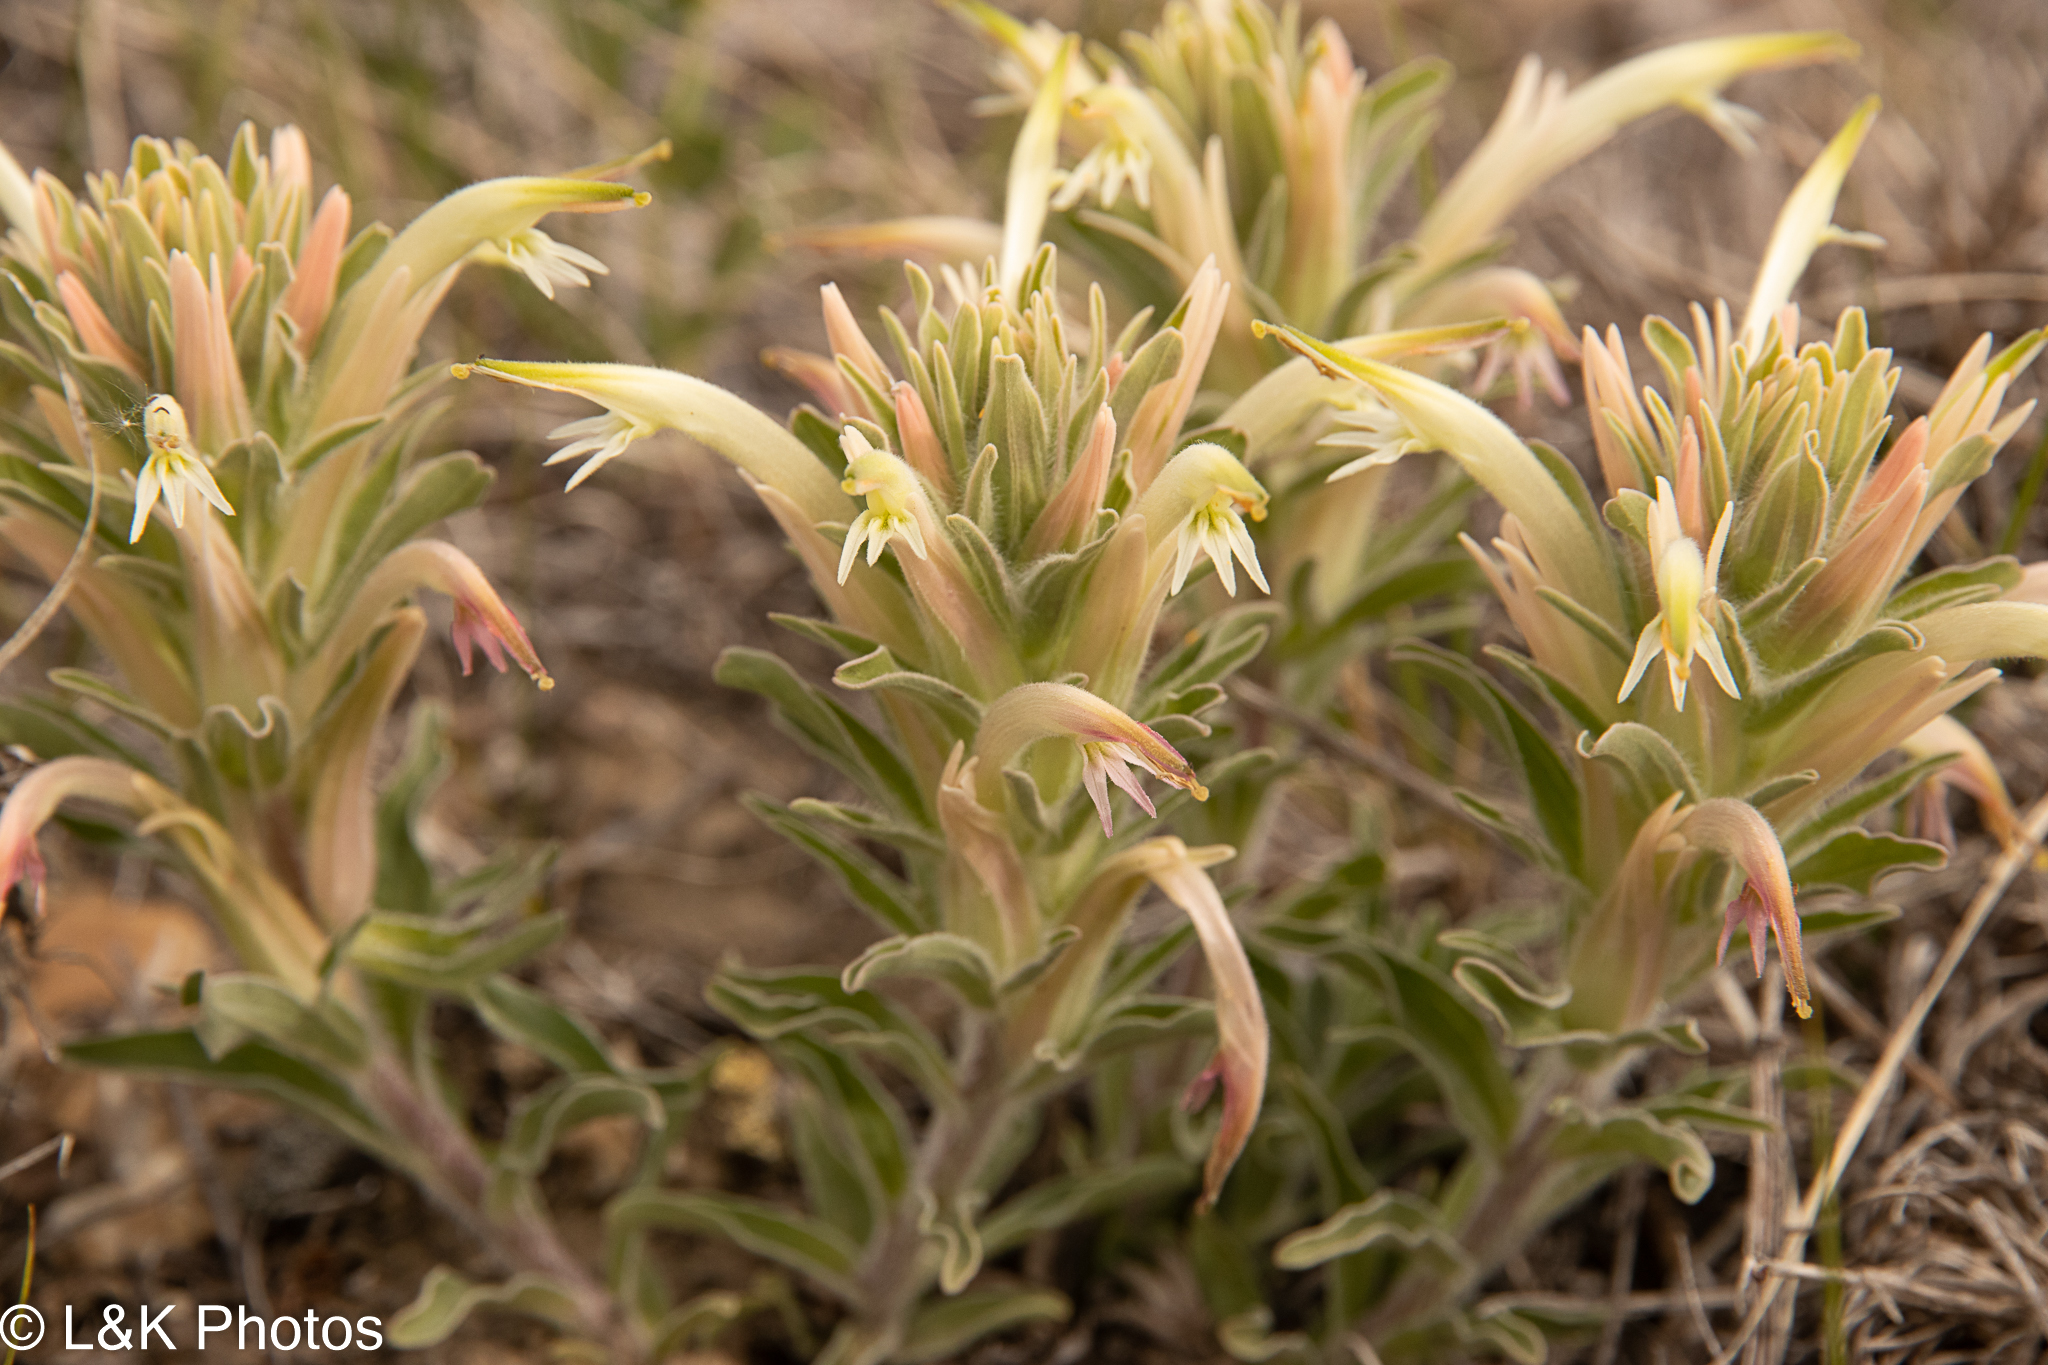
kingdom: Plantae
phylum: Tracheophyta
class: Magnoliopsida
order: Lamiales
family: Orobanchaceae
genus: Castilleja
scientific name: Castilleja sessiliflora
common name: Downy paintbrush
